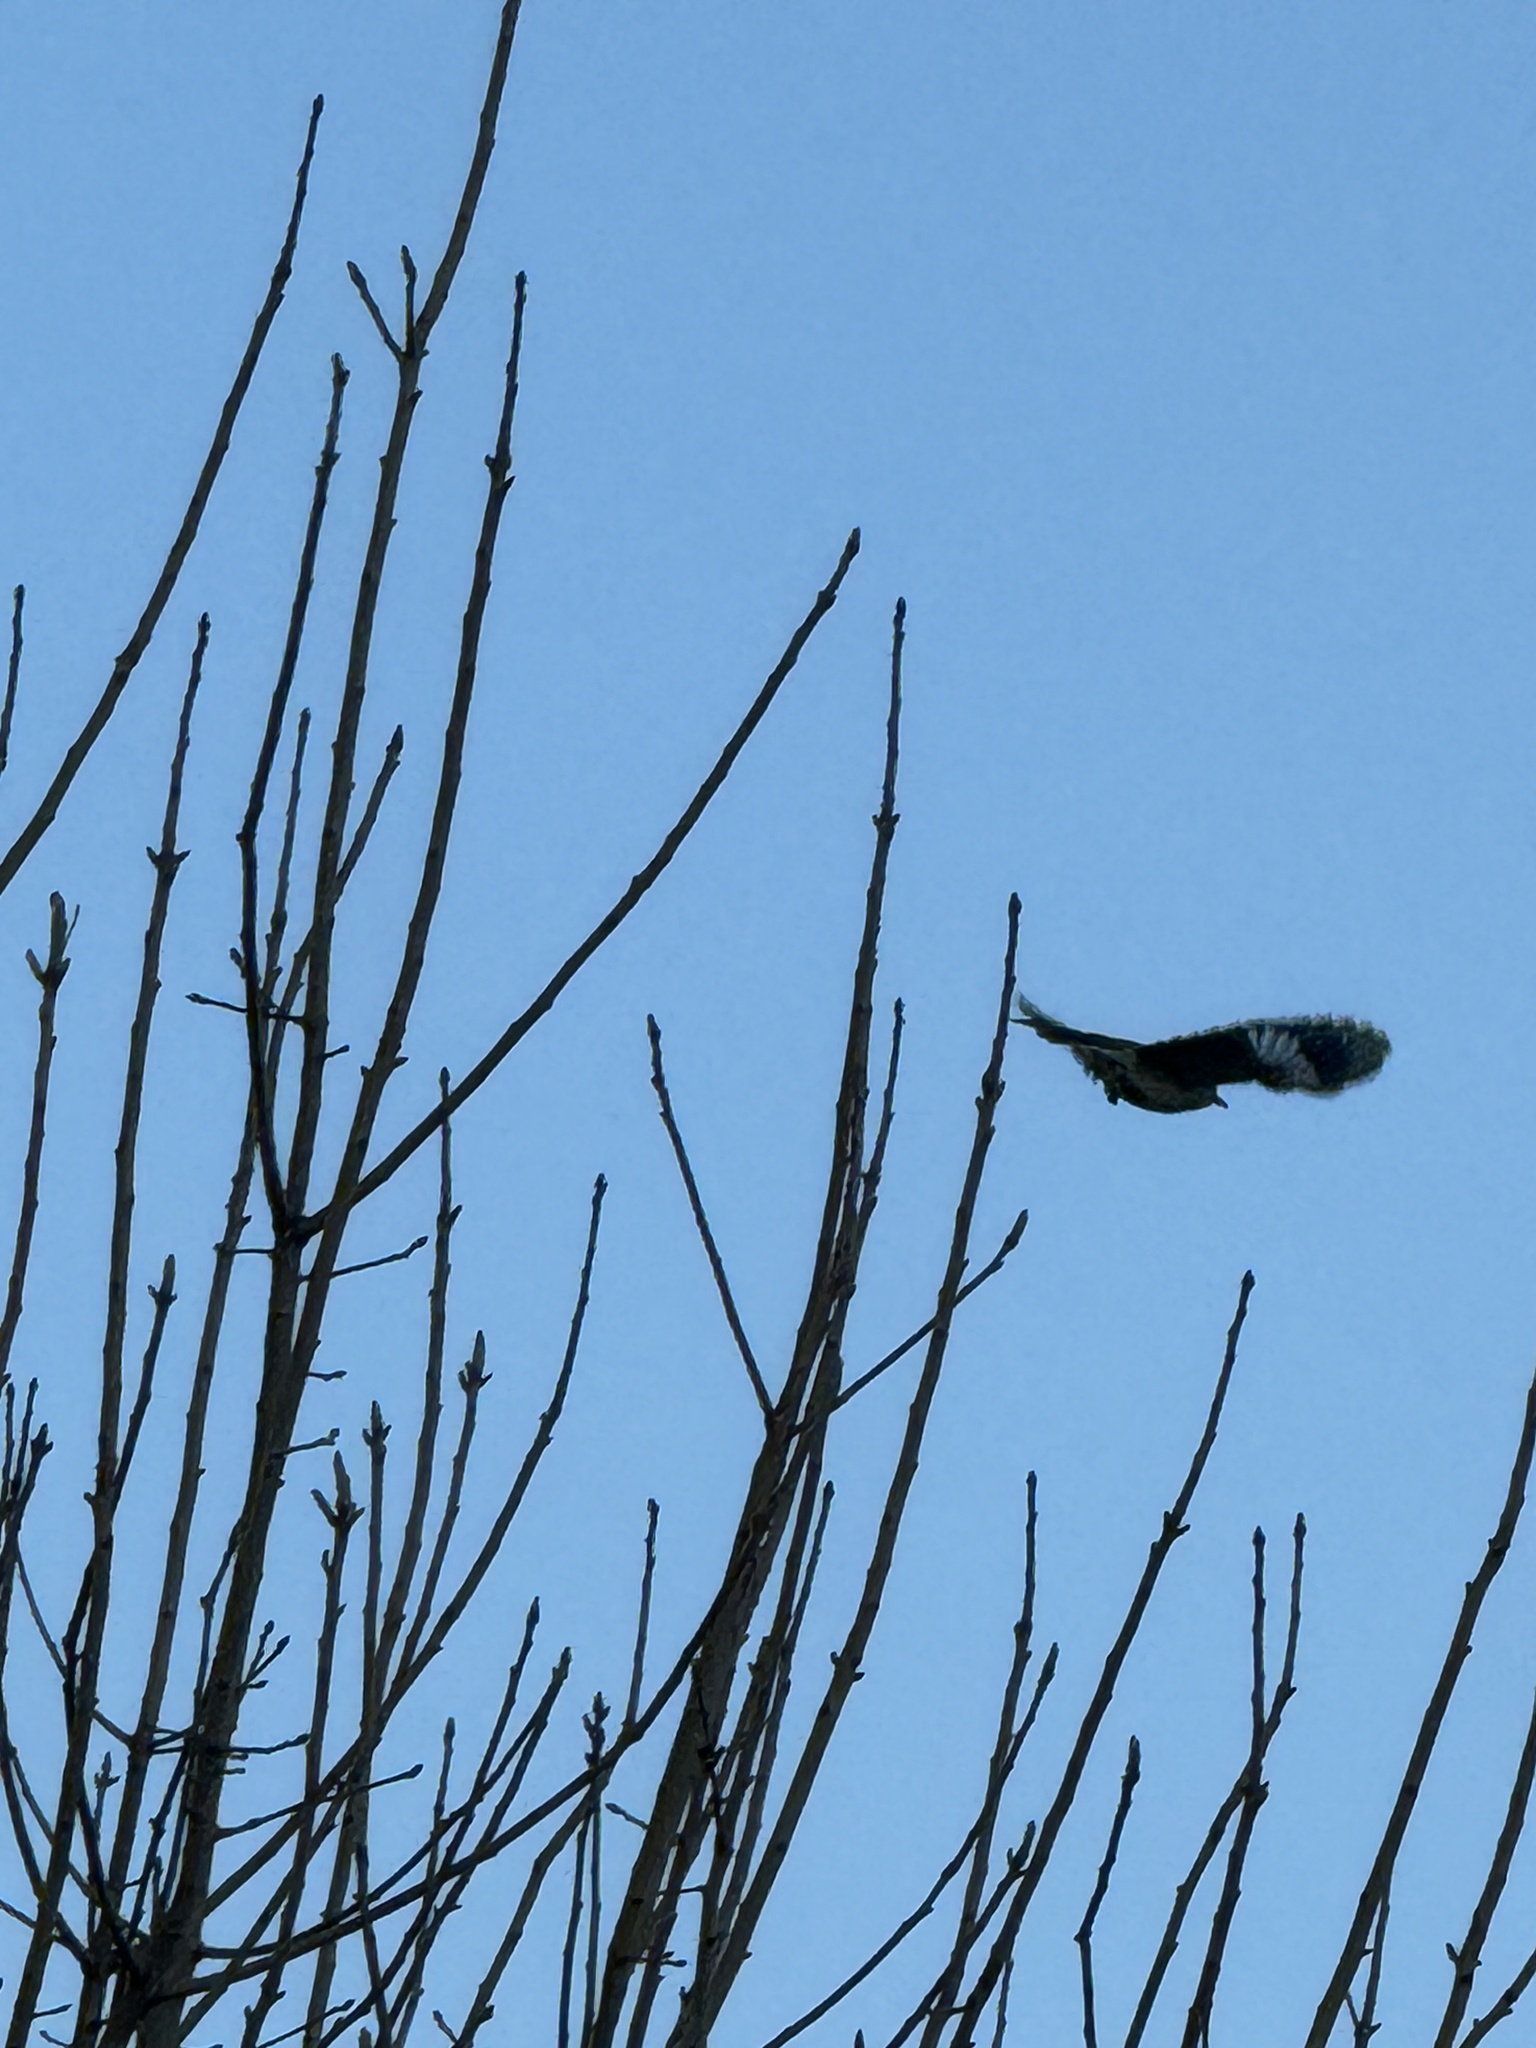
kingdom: Animalia
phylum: Chordata
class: Aves
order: Passeriformes
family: Mimidae
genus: Mimus
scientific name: Mimus polyglottos
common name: Northern mockingbird
